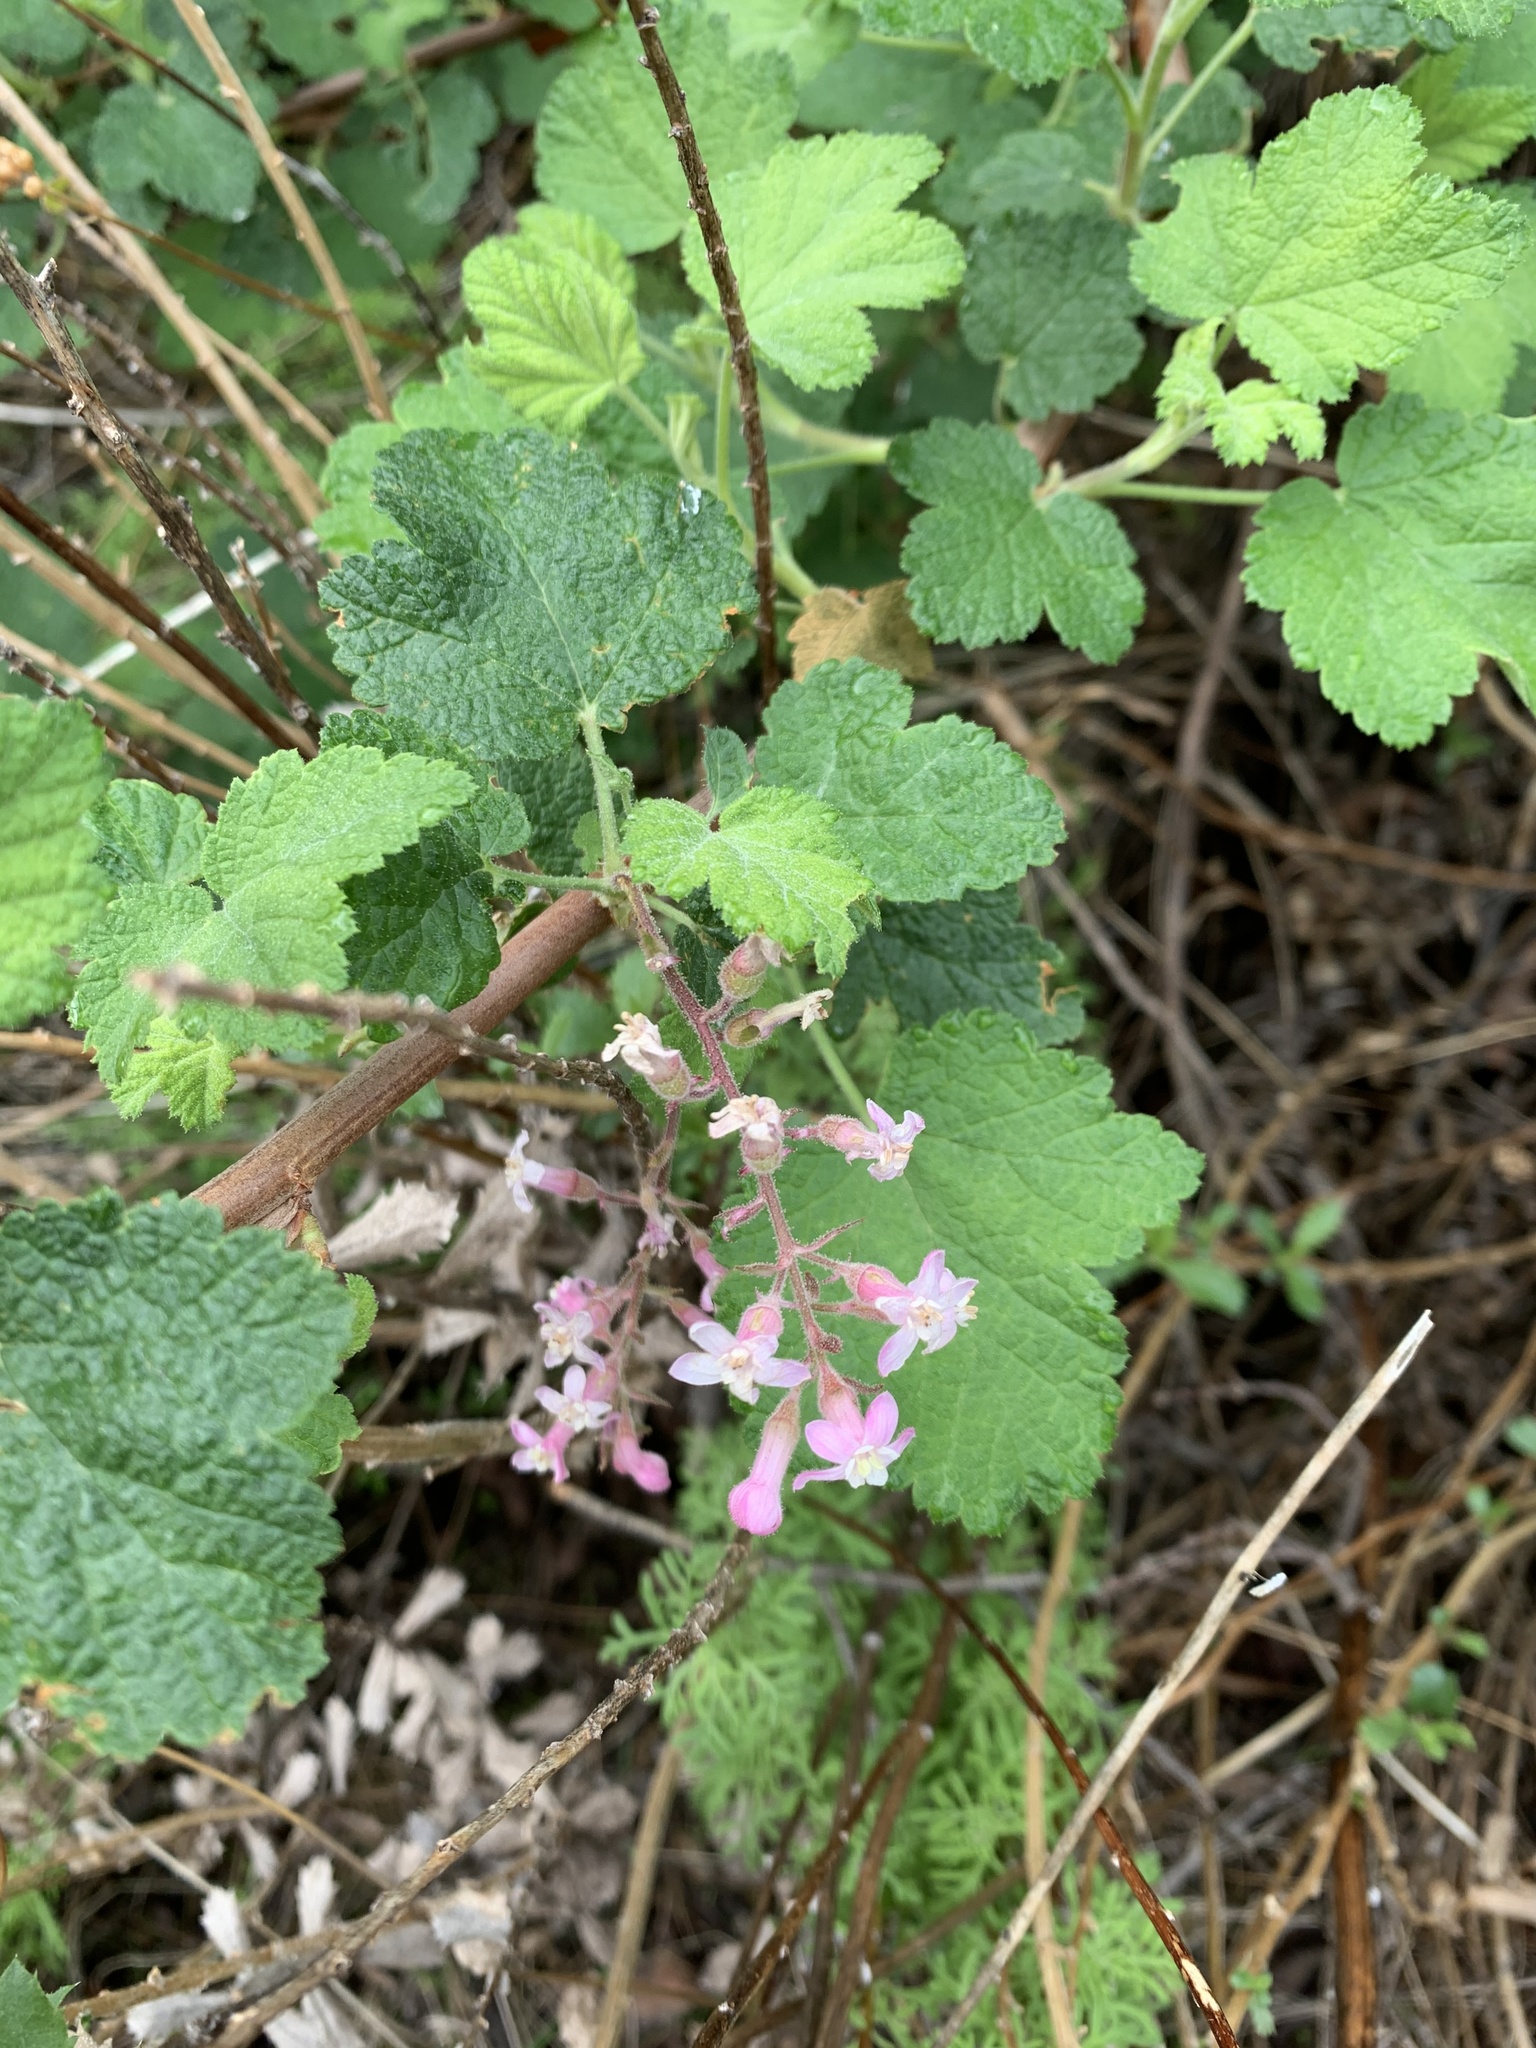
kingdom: Plantae
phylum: Tracheophyta
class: Magnoliopsida
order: Saxifragales
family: Grossulariaceae
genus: Ribes
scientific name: Ribes malvaceum
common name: Chaparral currant
